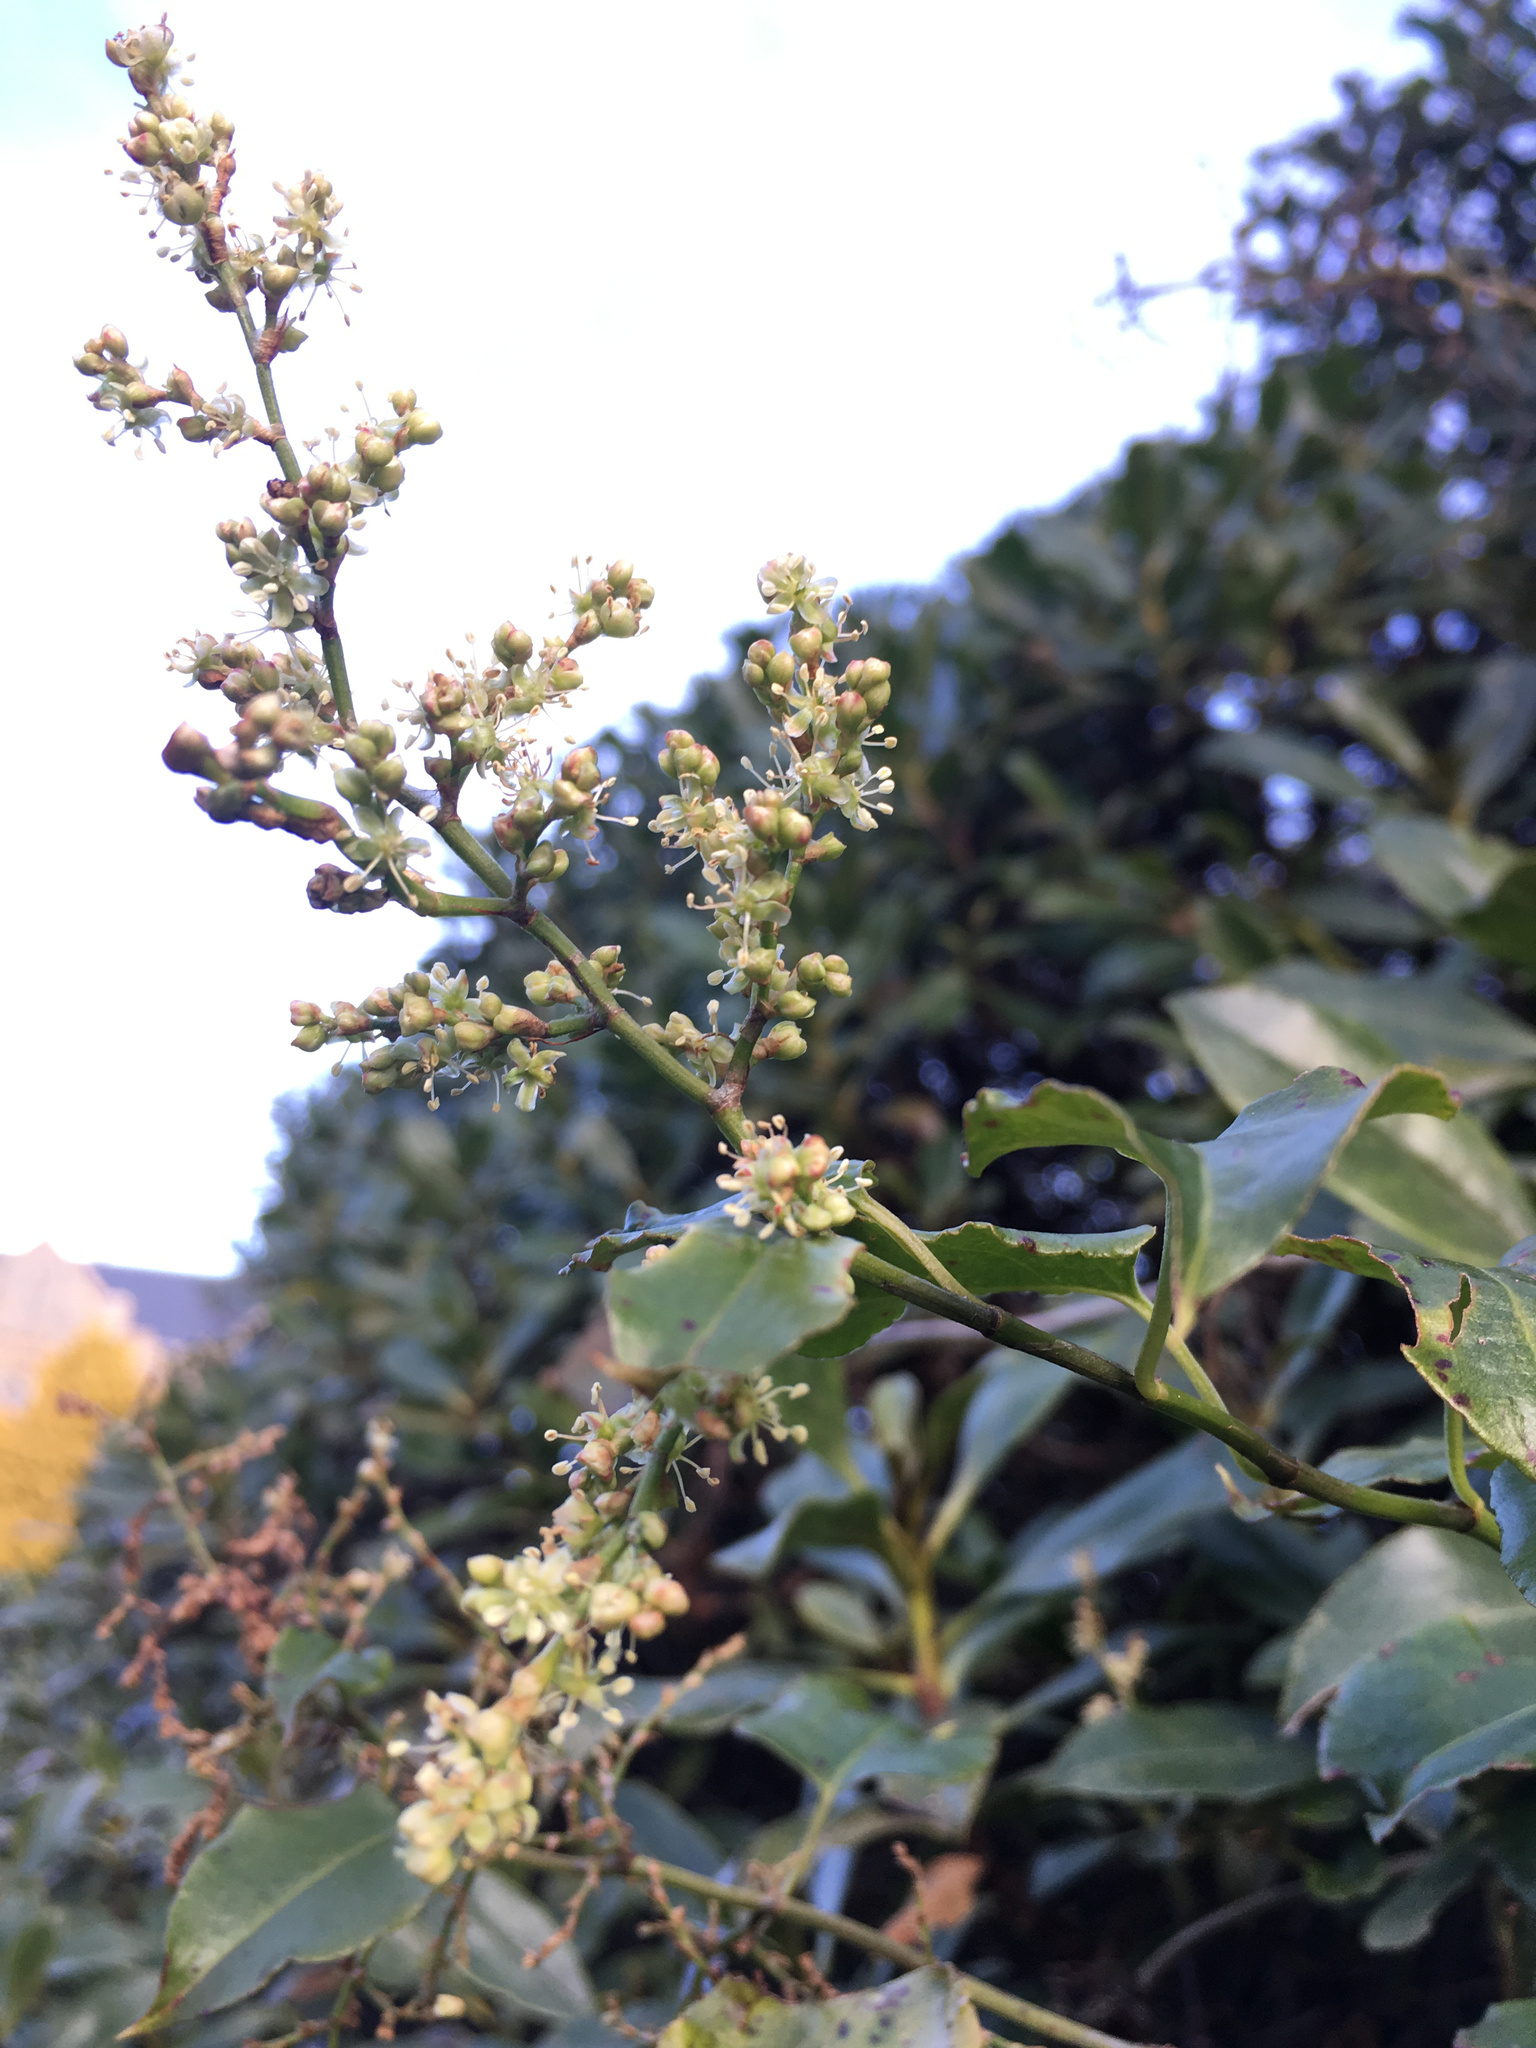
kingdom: Plantae
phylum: Tracheophyta
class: Magnoliopsida
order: Caryophyllales
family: Polygonaceae
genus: Muehlenbeckia
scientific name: Muehlenbeckia australis
